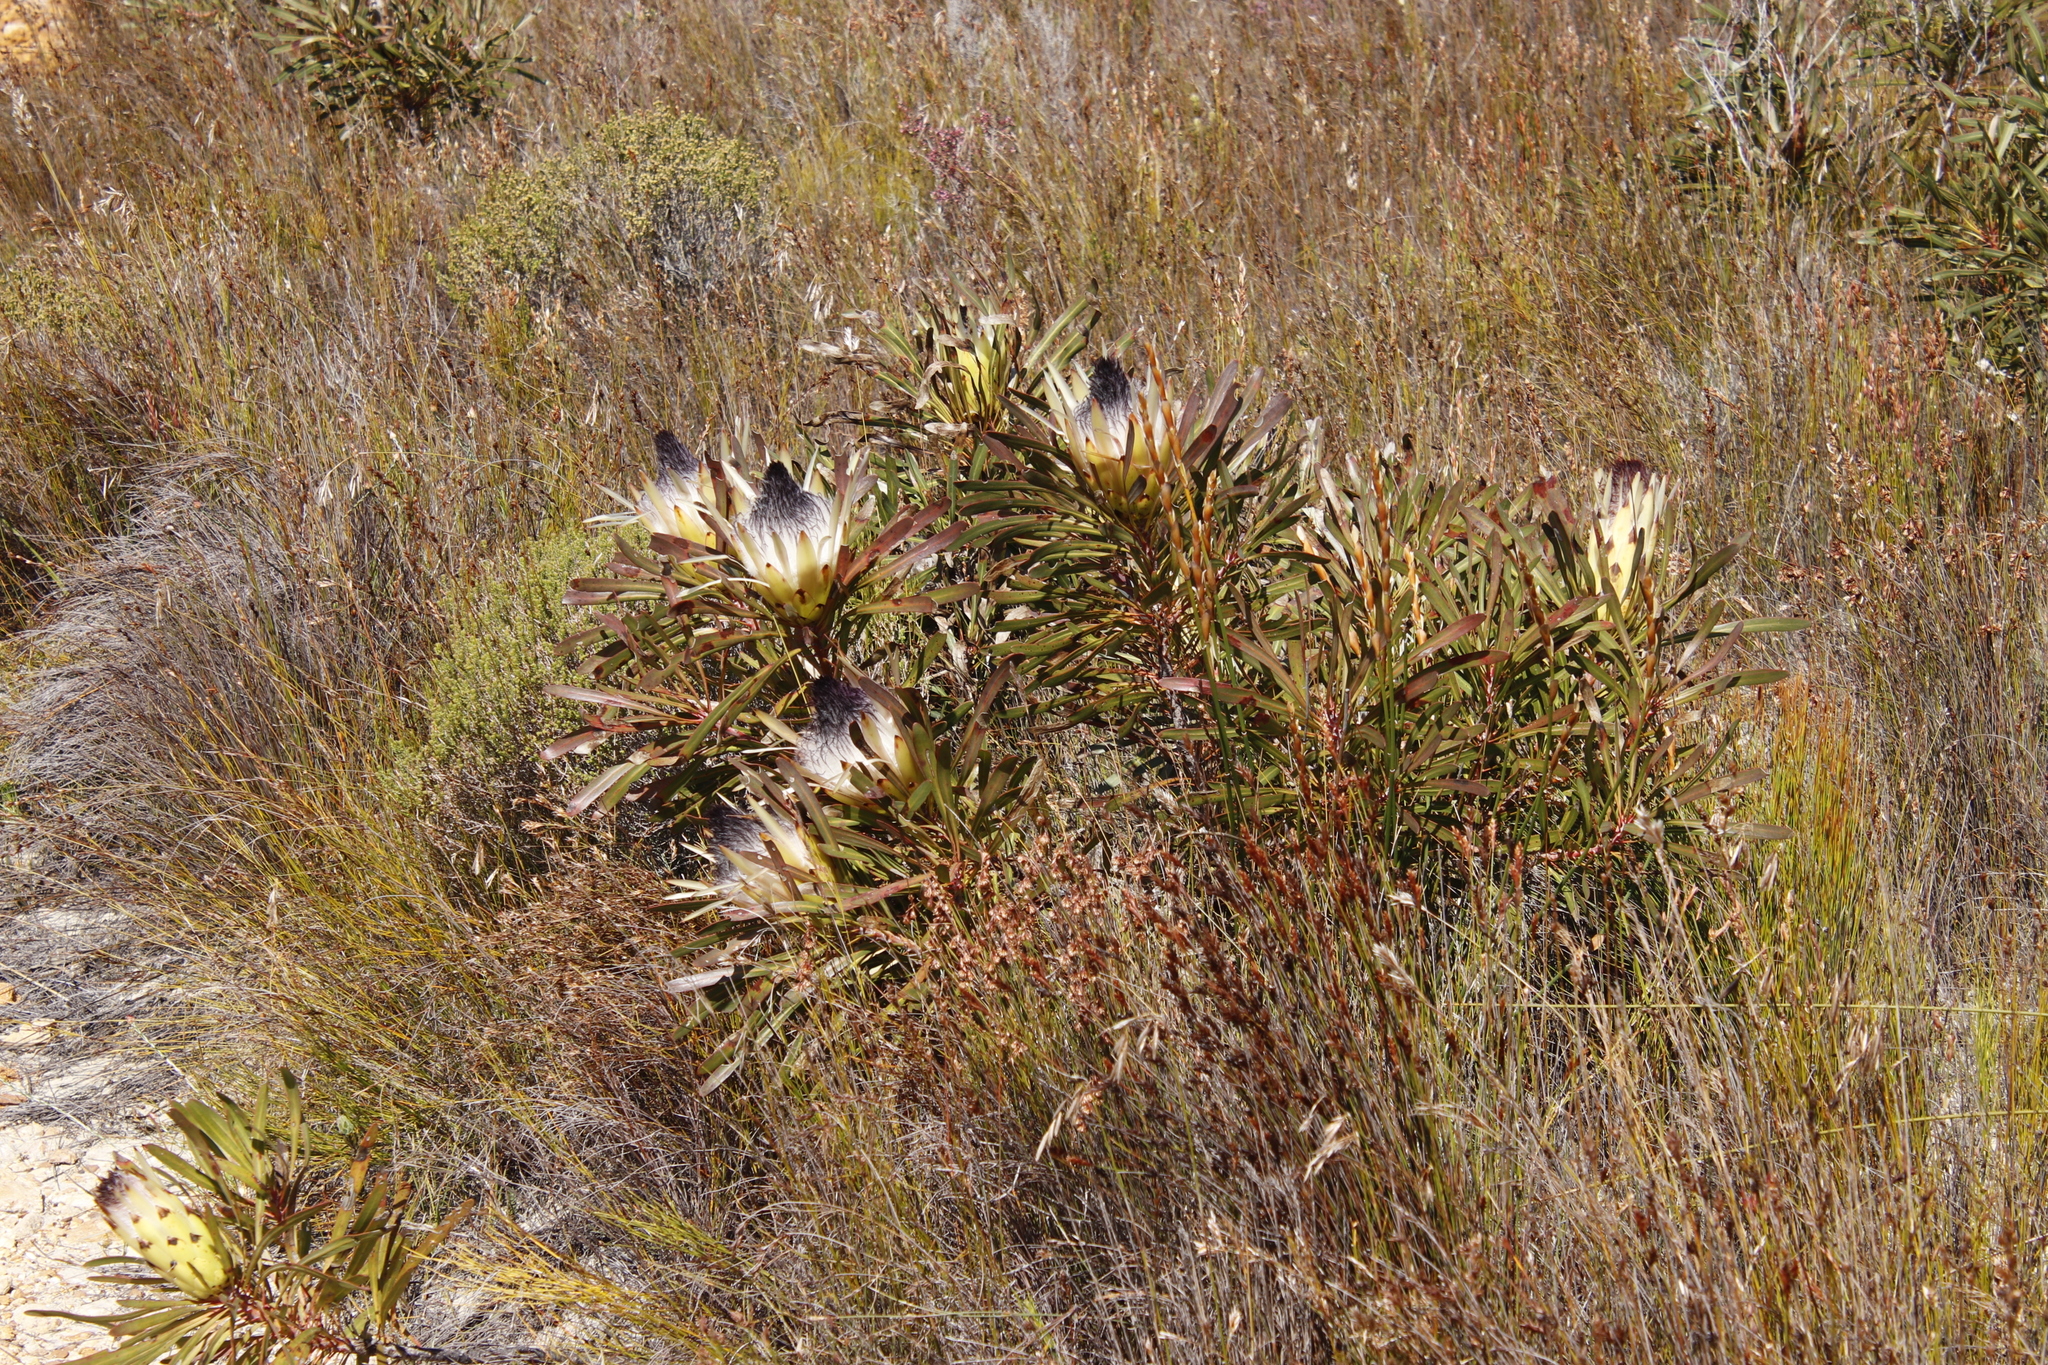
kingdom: Plantae
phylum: Tracheophyta
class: Magnoliopsida
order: Proteales
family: Proteaceae
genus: Protea
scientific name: Protea longifolia
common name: Long-leaf sugarbush
